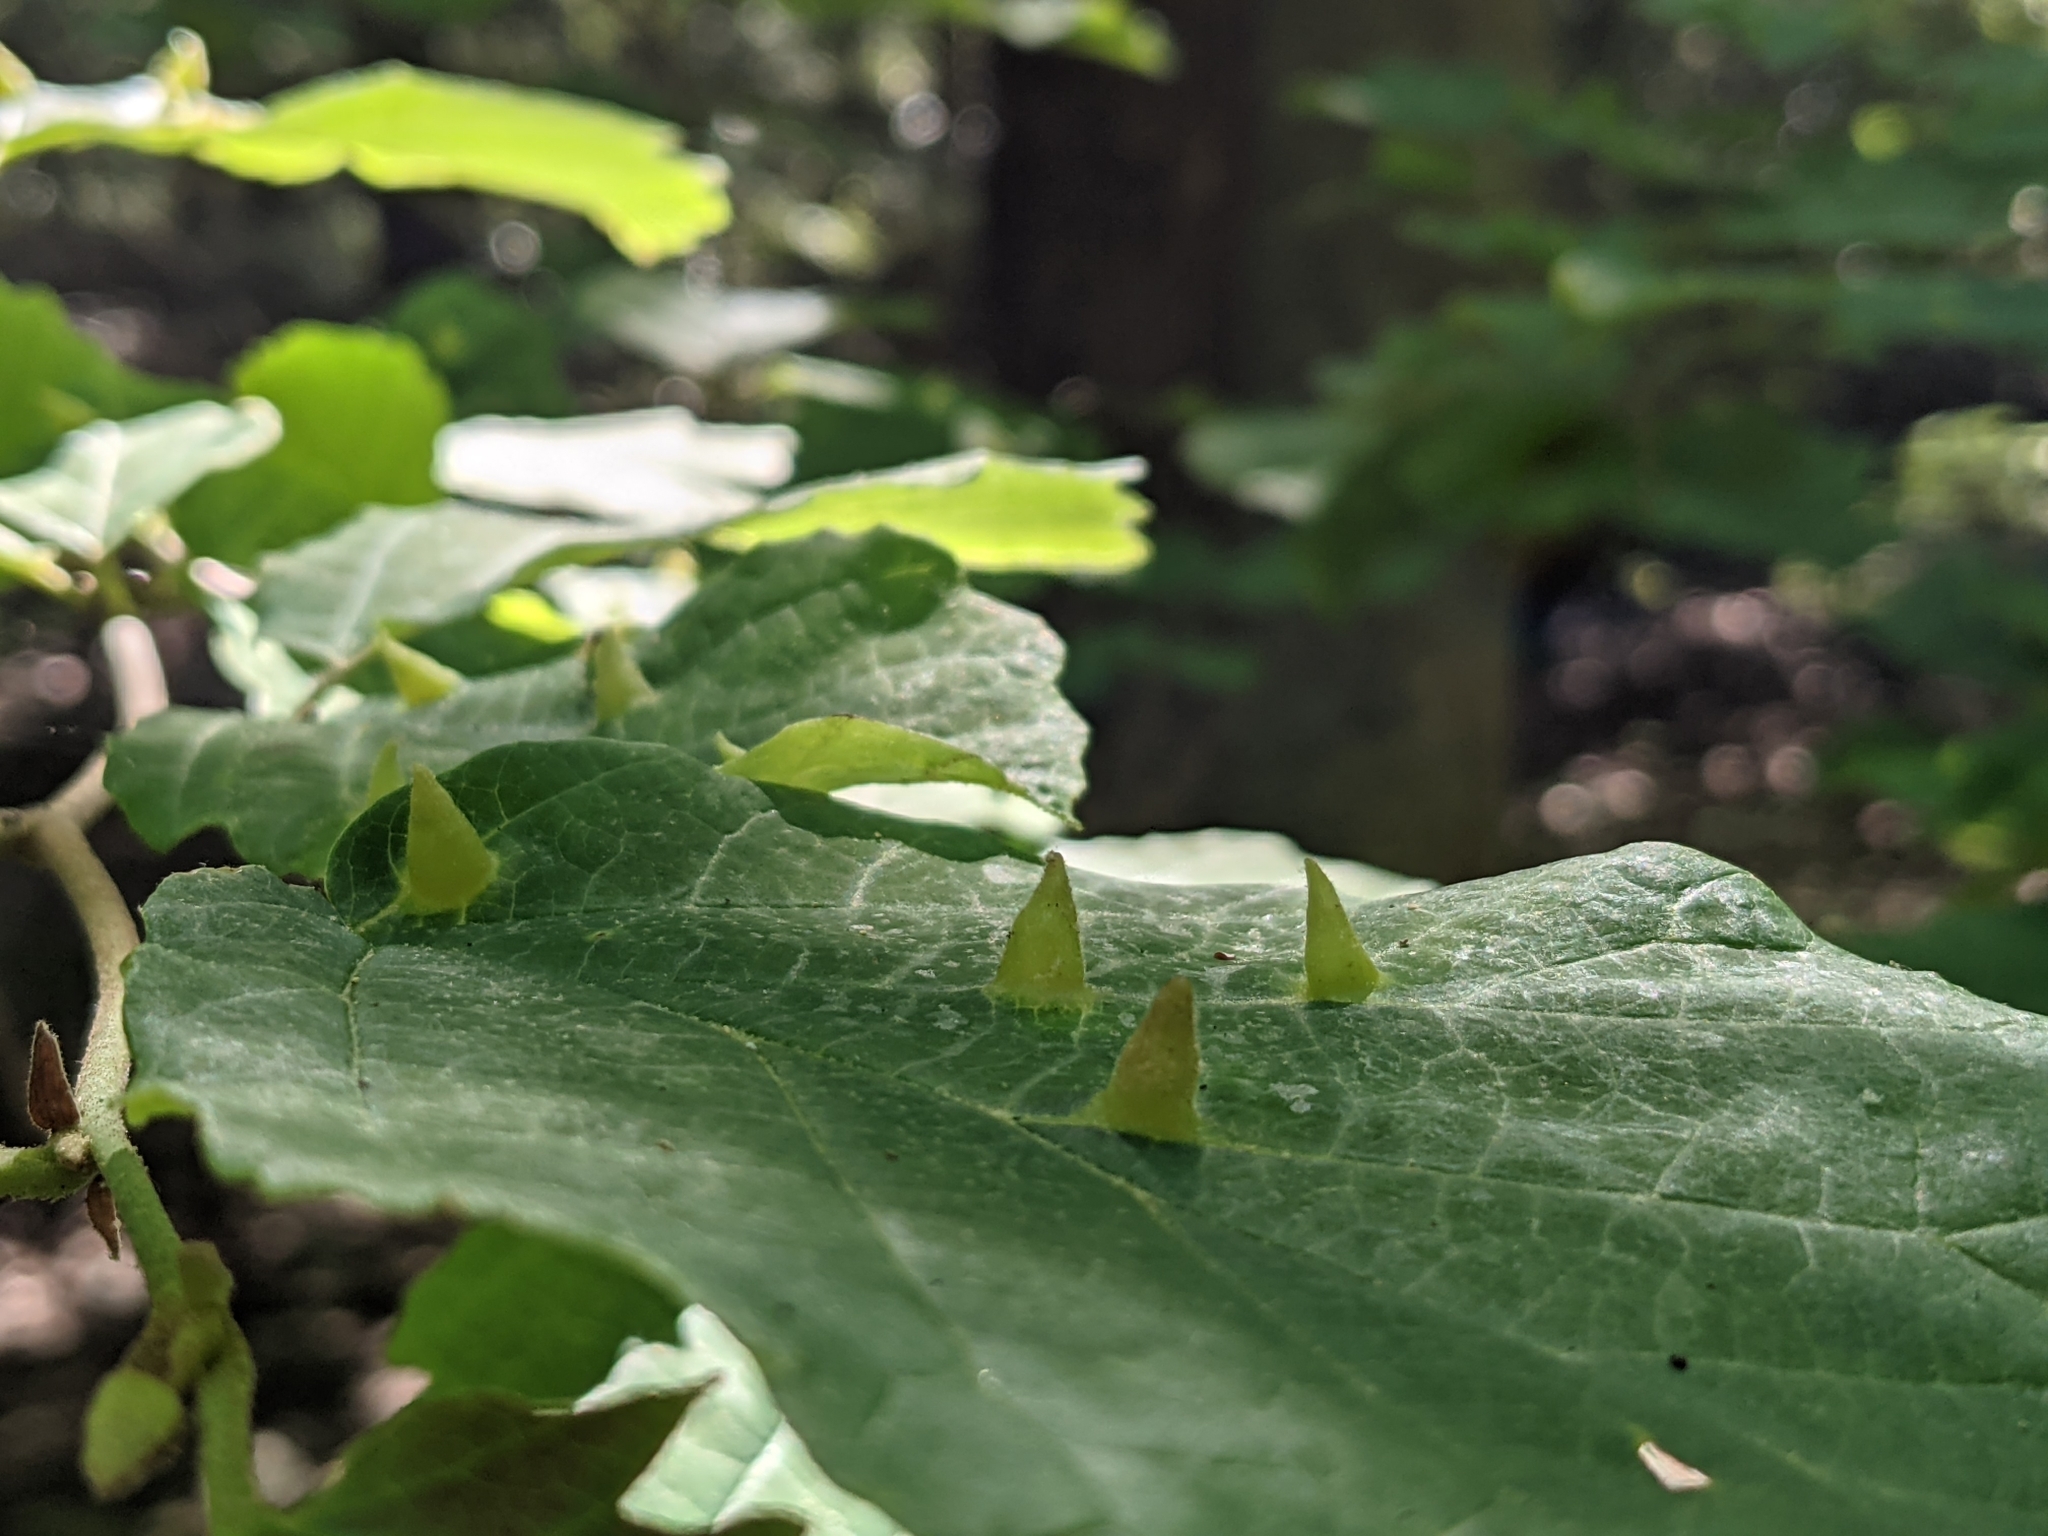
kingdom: Animalia
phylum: Arthropoda
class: Insecta
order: Hemiptera
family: Aphididae
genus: Hormaphis
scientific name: Hormaphis hamamelidis
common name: Witch-hazel cone gall aphid
